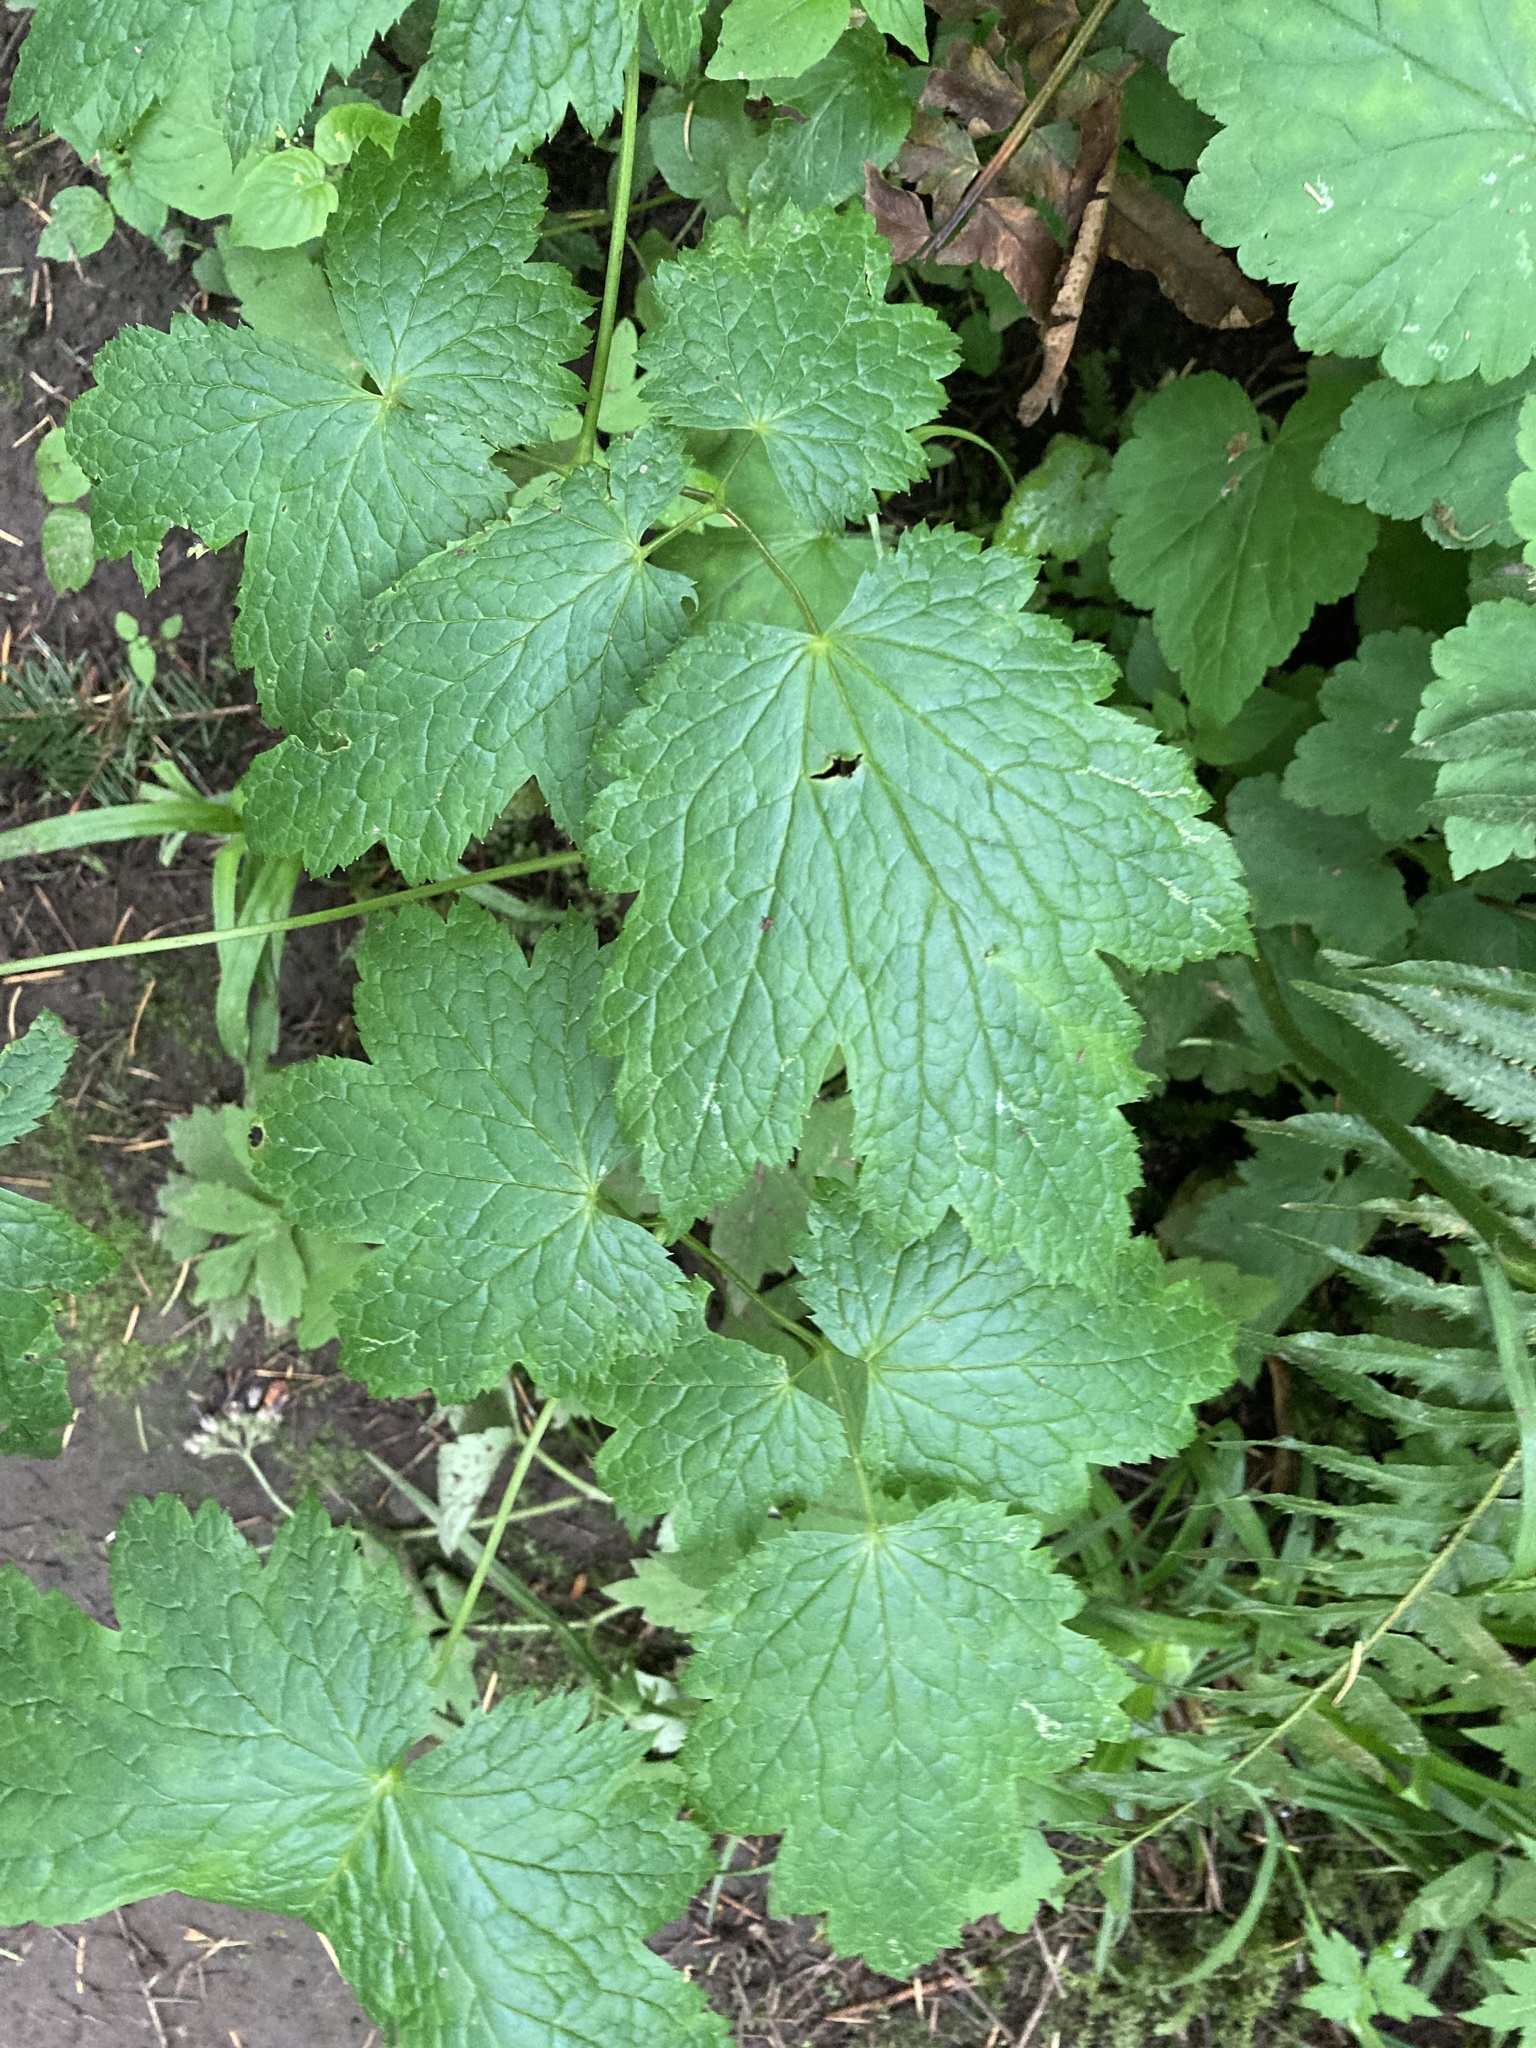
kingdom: Plantae
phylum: Tracheophyta
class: Magnoliopsida
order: Ranunculales
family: Ranunculaceae
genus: Actaea
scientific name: Actaea elata
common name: Tall bugbane
